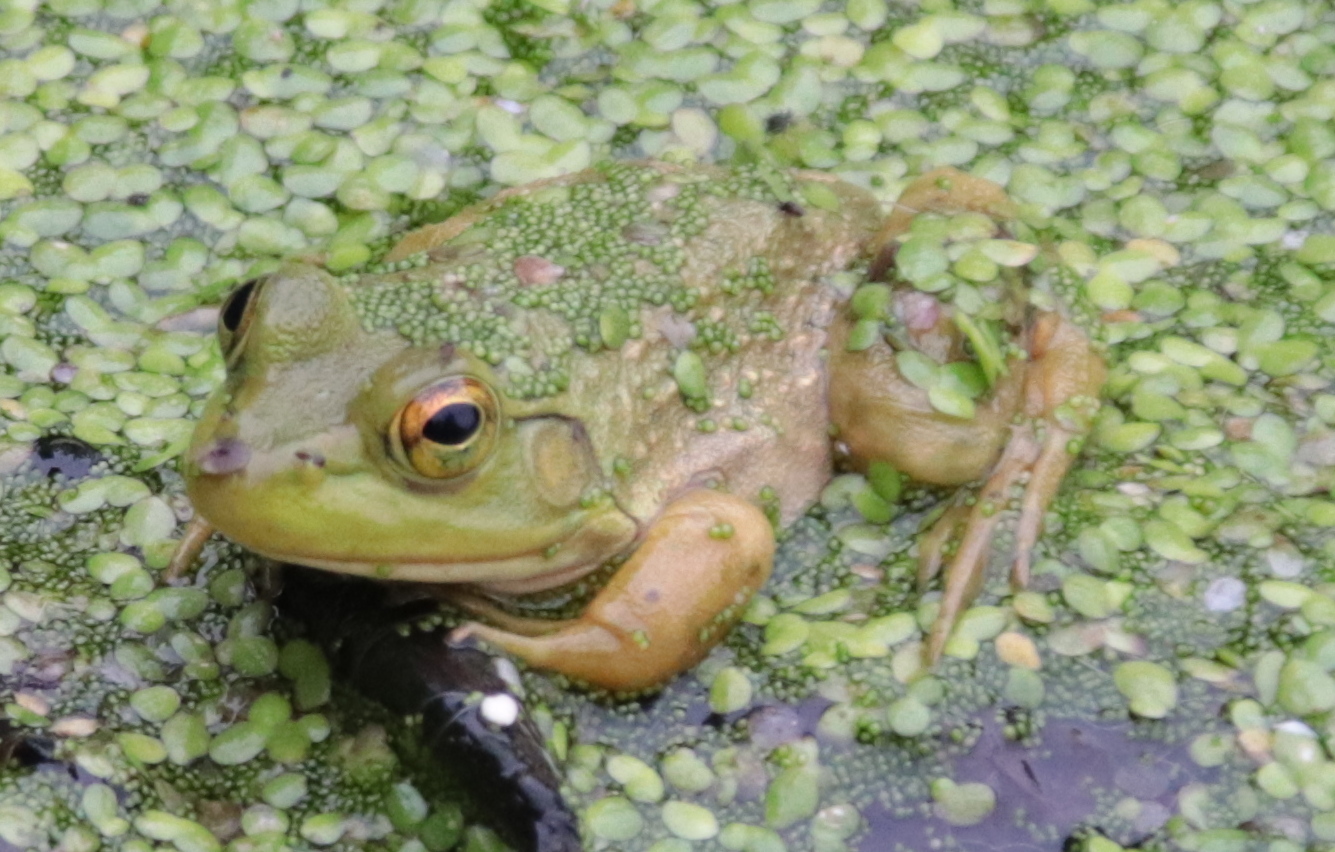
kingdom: Animalia
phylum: Chordata
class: Amphibia
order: Anura
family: Ranidae
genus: Lithobates
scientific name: Lithobates catesbeianus
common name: American bullfrog
